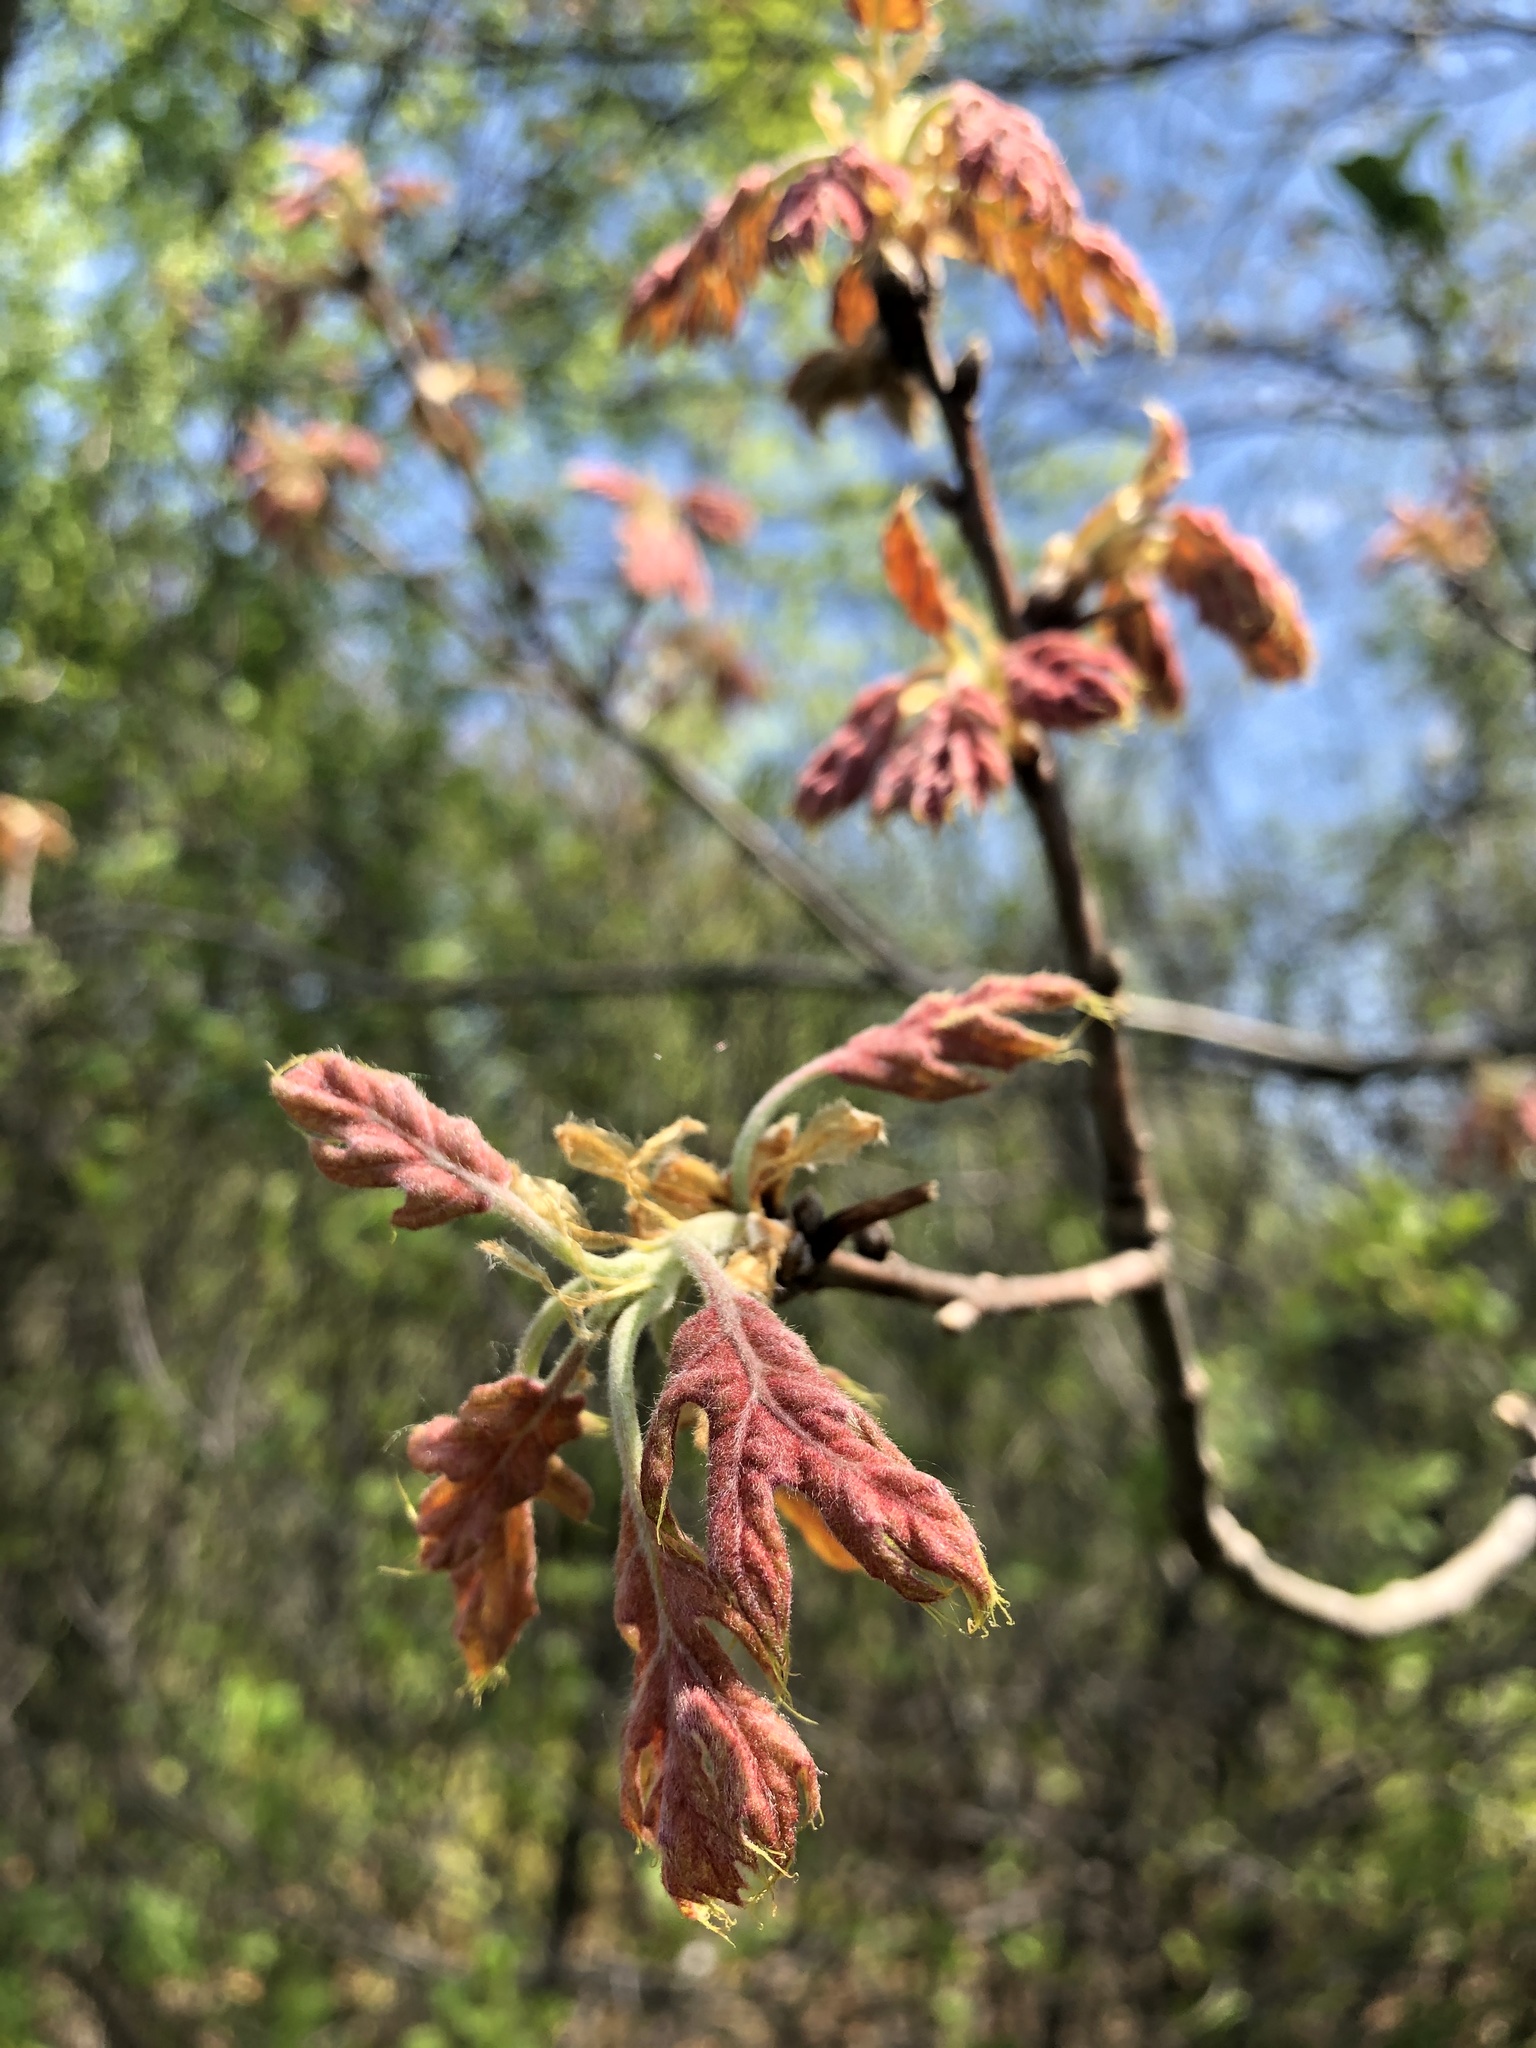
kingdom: Plantae
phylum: Tracheophyta
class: Magnoliopsida
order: Fagales
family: Fagaceae
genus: Quercus
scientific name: Quercus rubra
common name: Red oak
